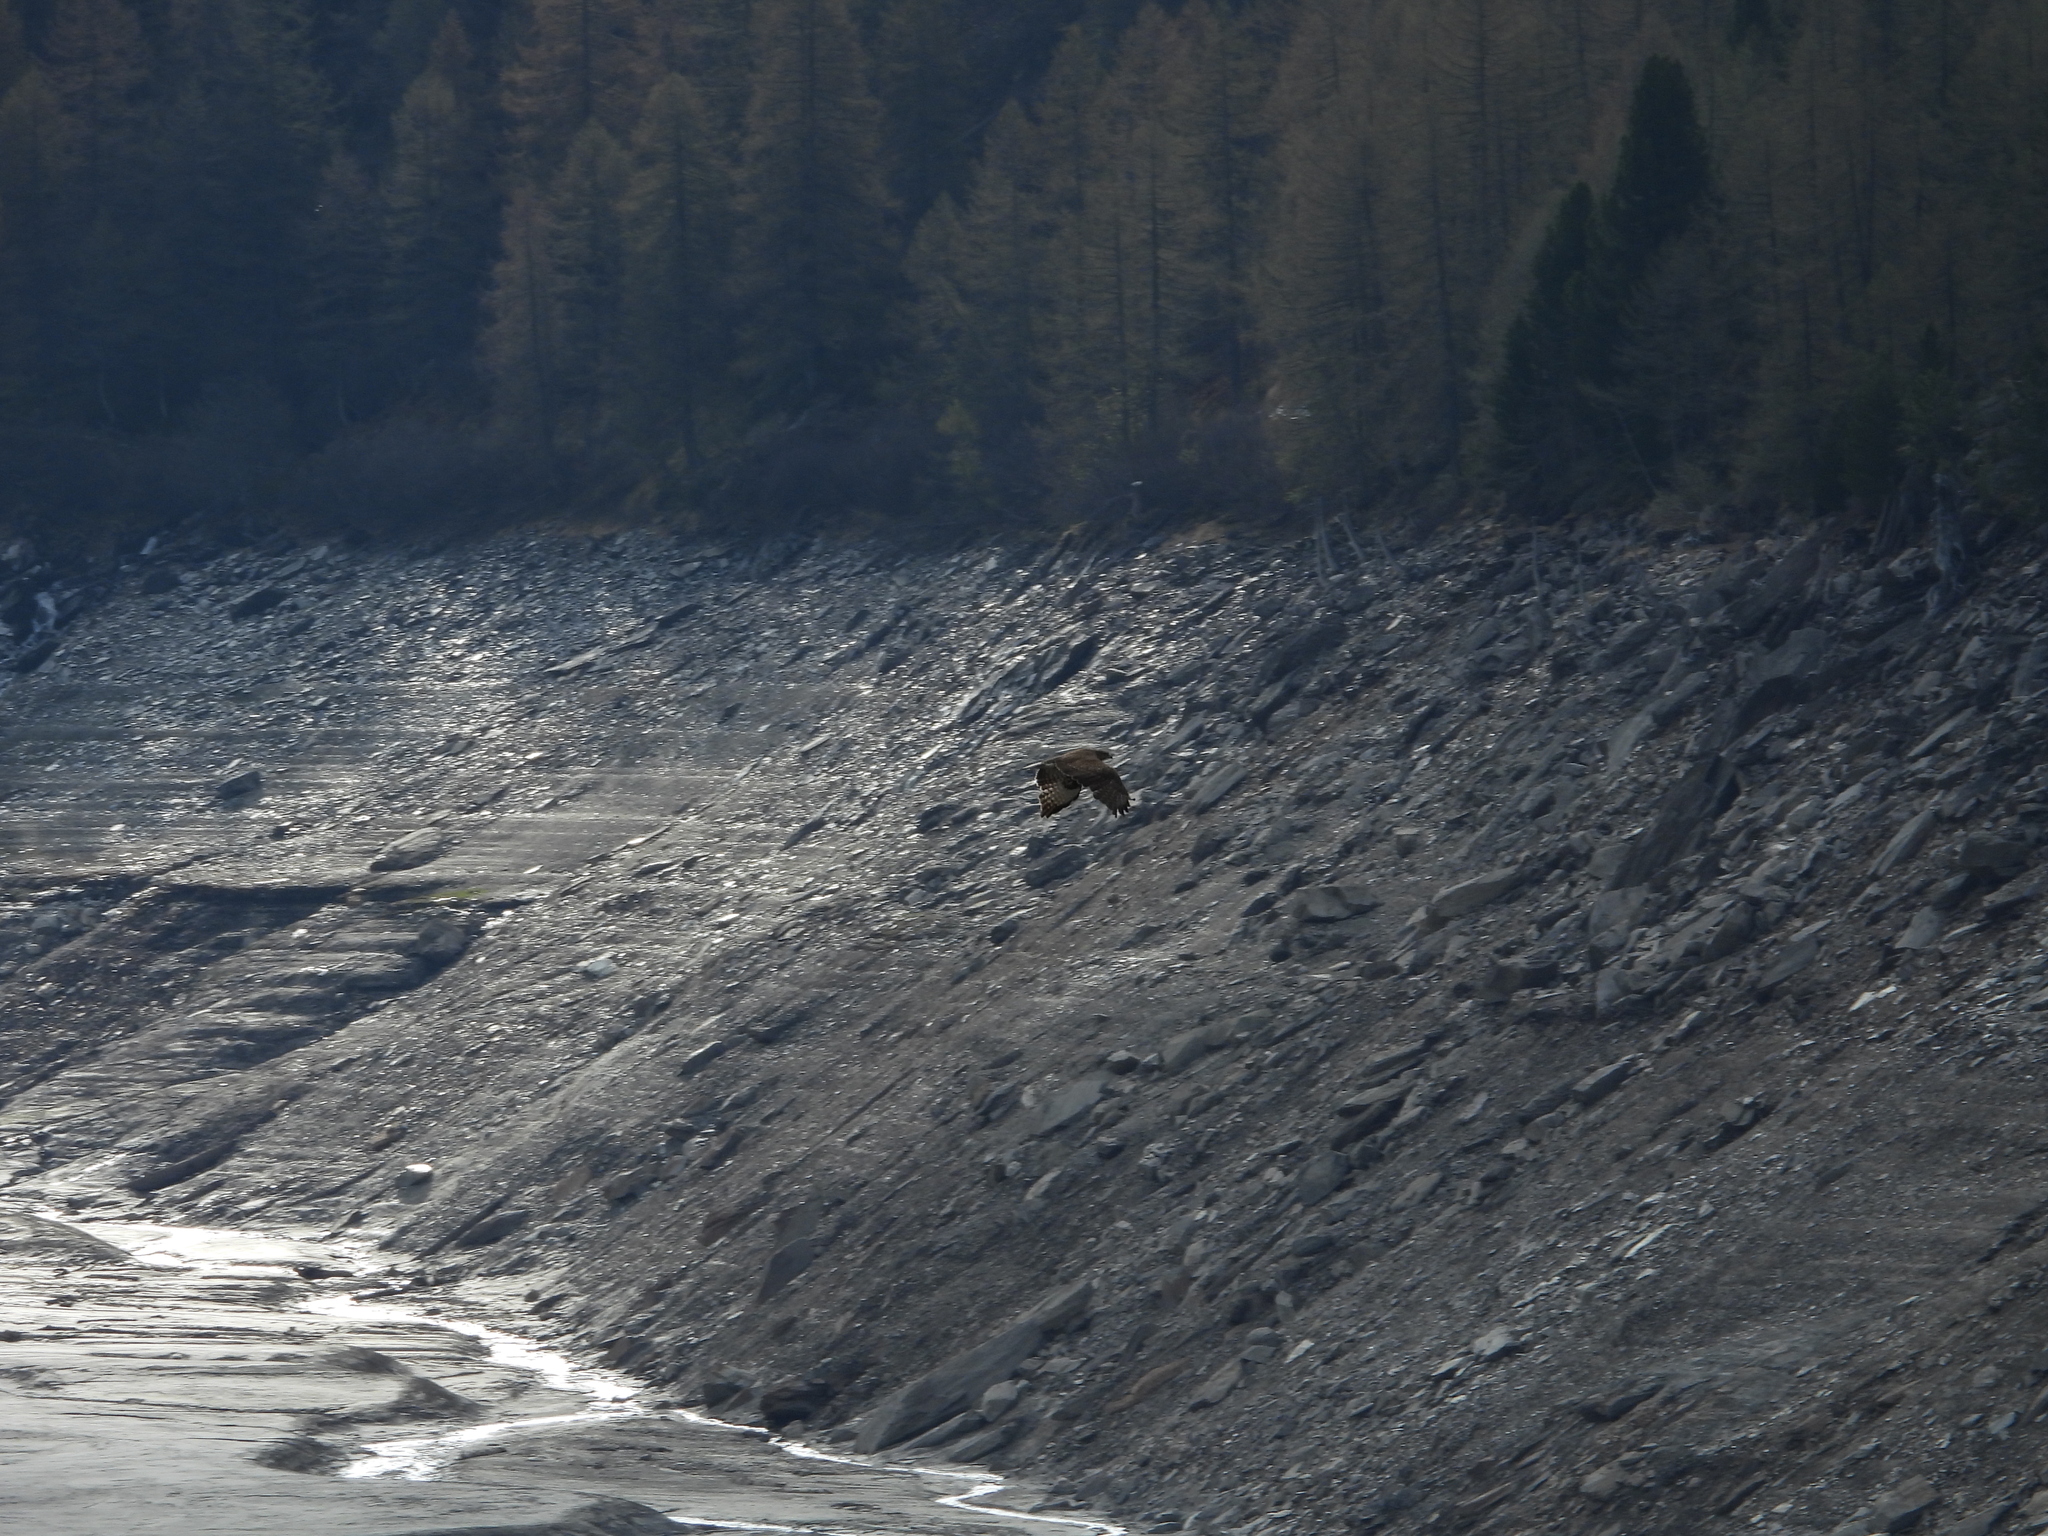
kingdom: Animalia
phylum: Chordata
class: Aves
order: Accipitriformes
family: Accipitridae
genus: Buteo
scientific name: Buteo buteo
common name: Common buzzard
